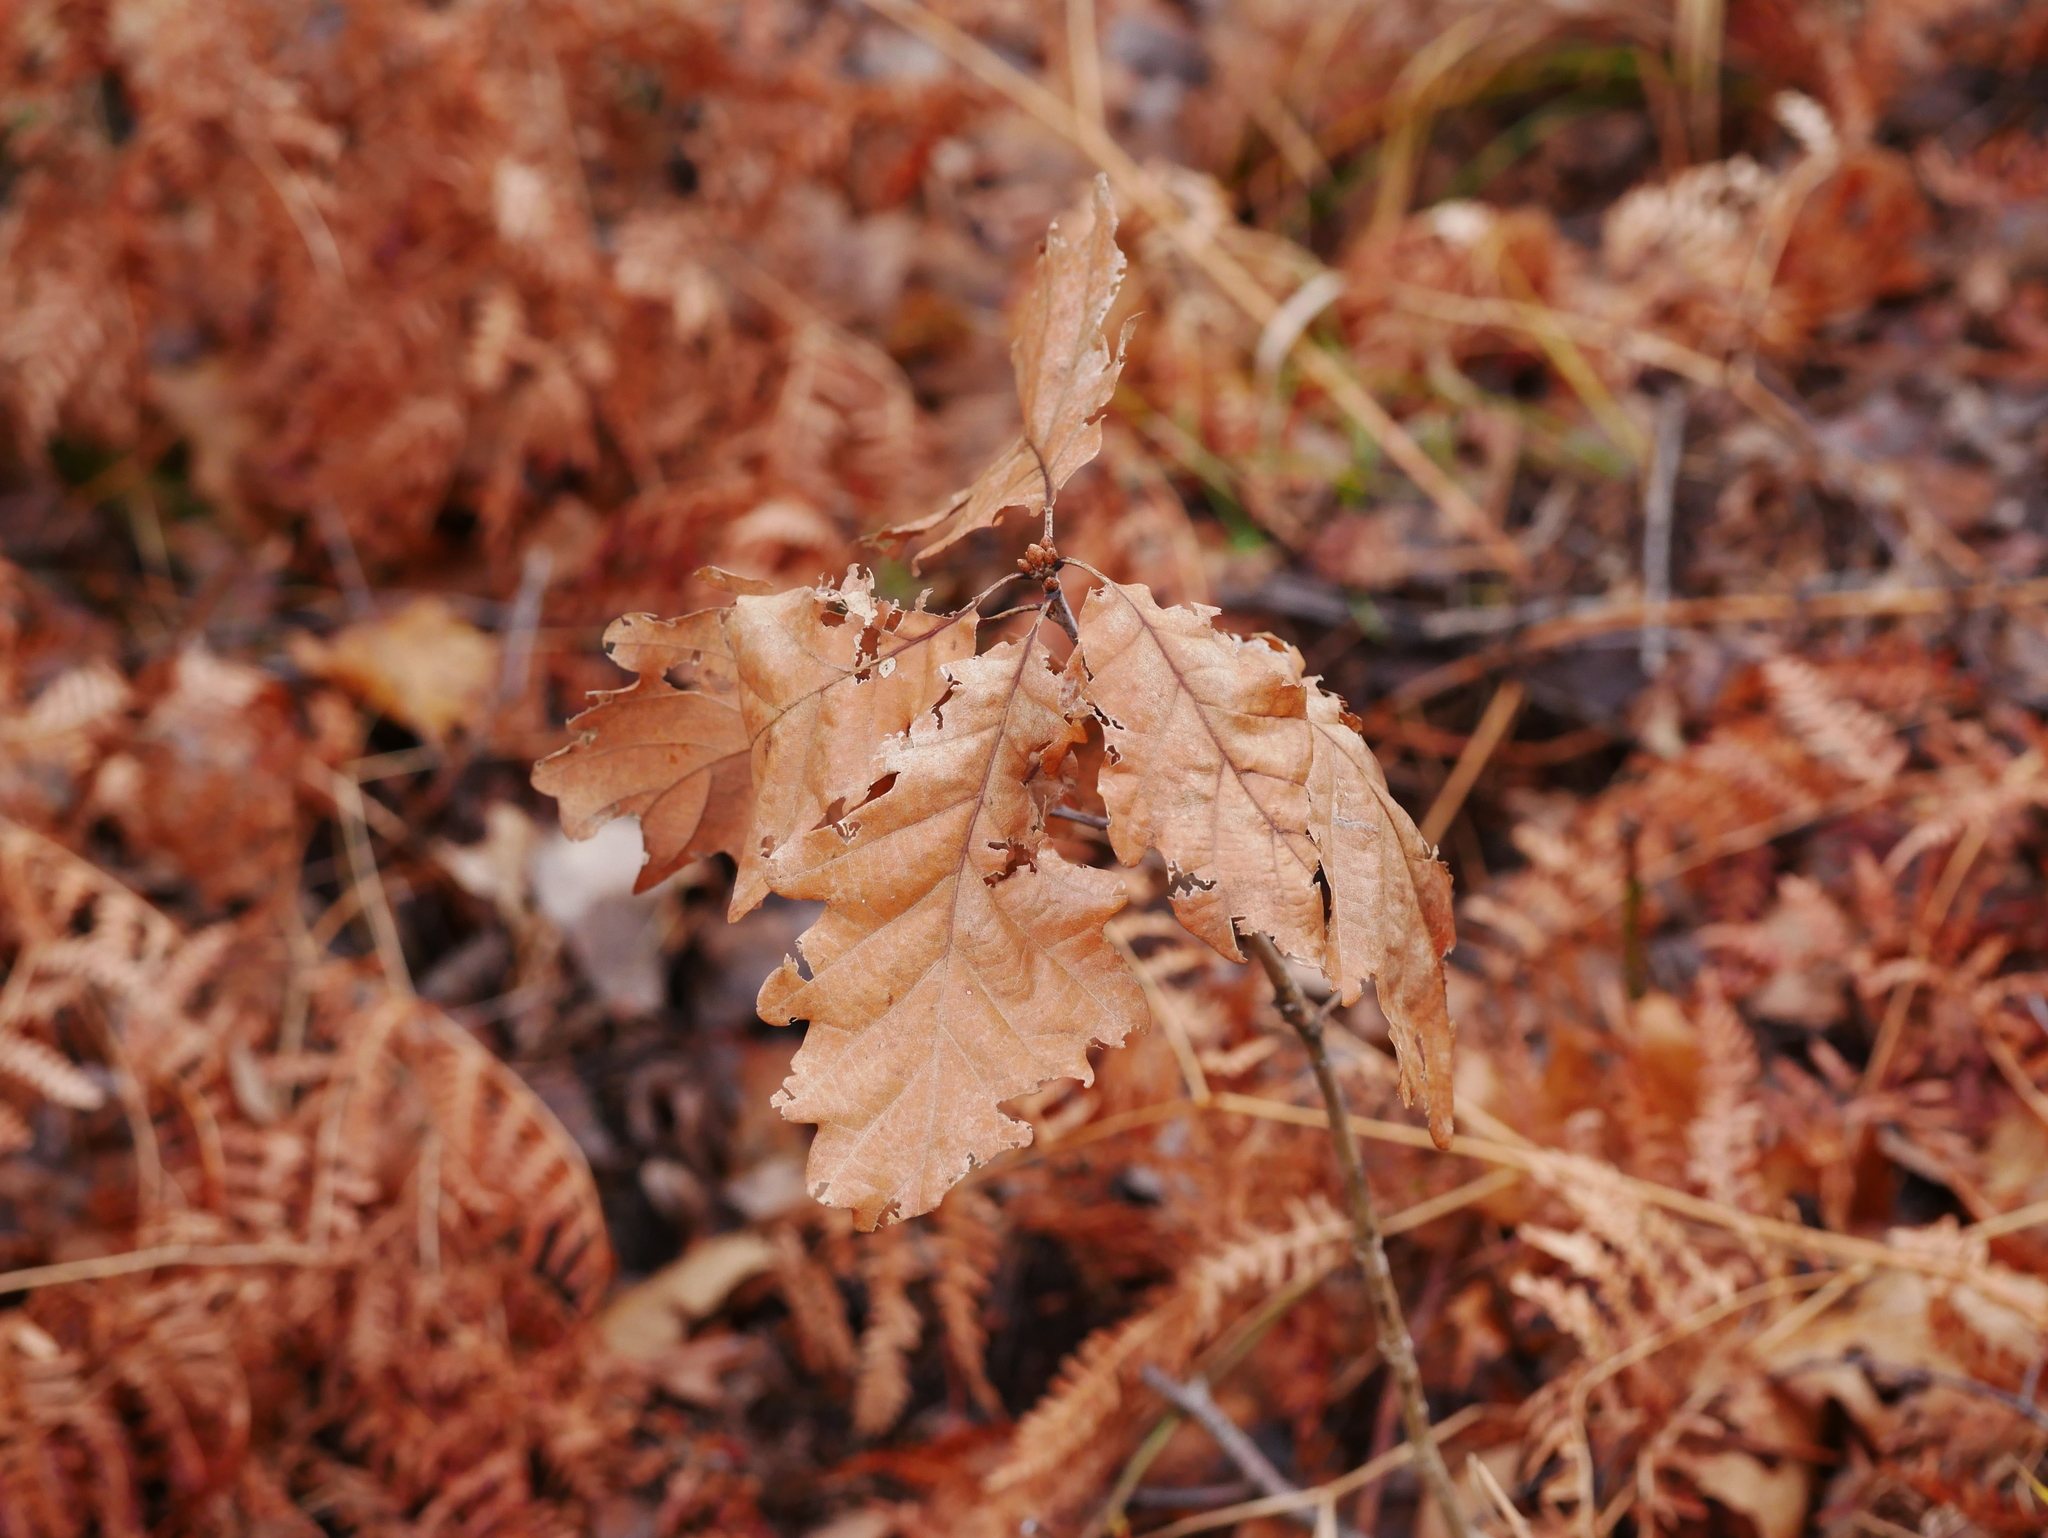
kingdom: Plantae
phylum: Tracheophyta
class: Magnoliopsida
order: Fagales
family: Fagaceae
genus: Quercus
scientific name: Quercus robur
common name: Pedunculate oak
